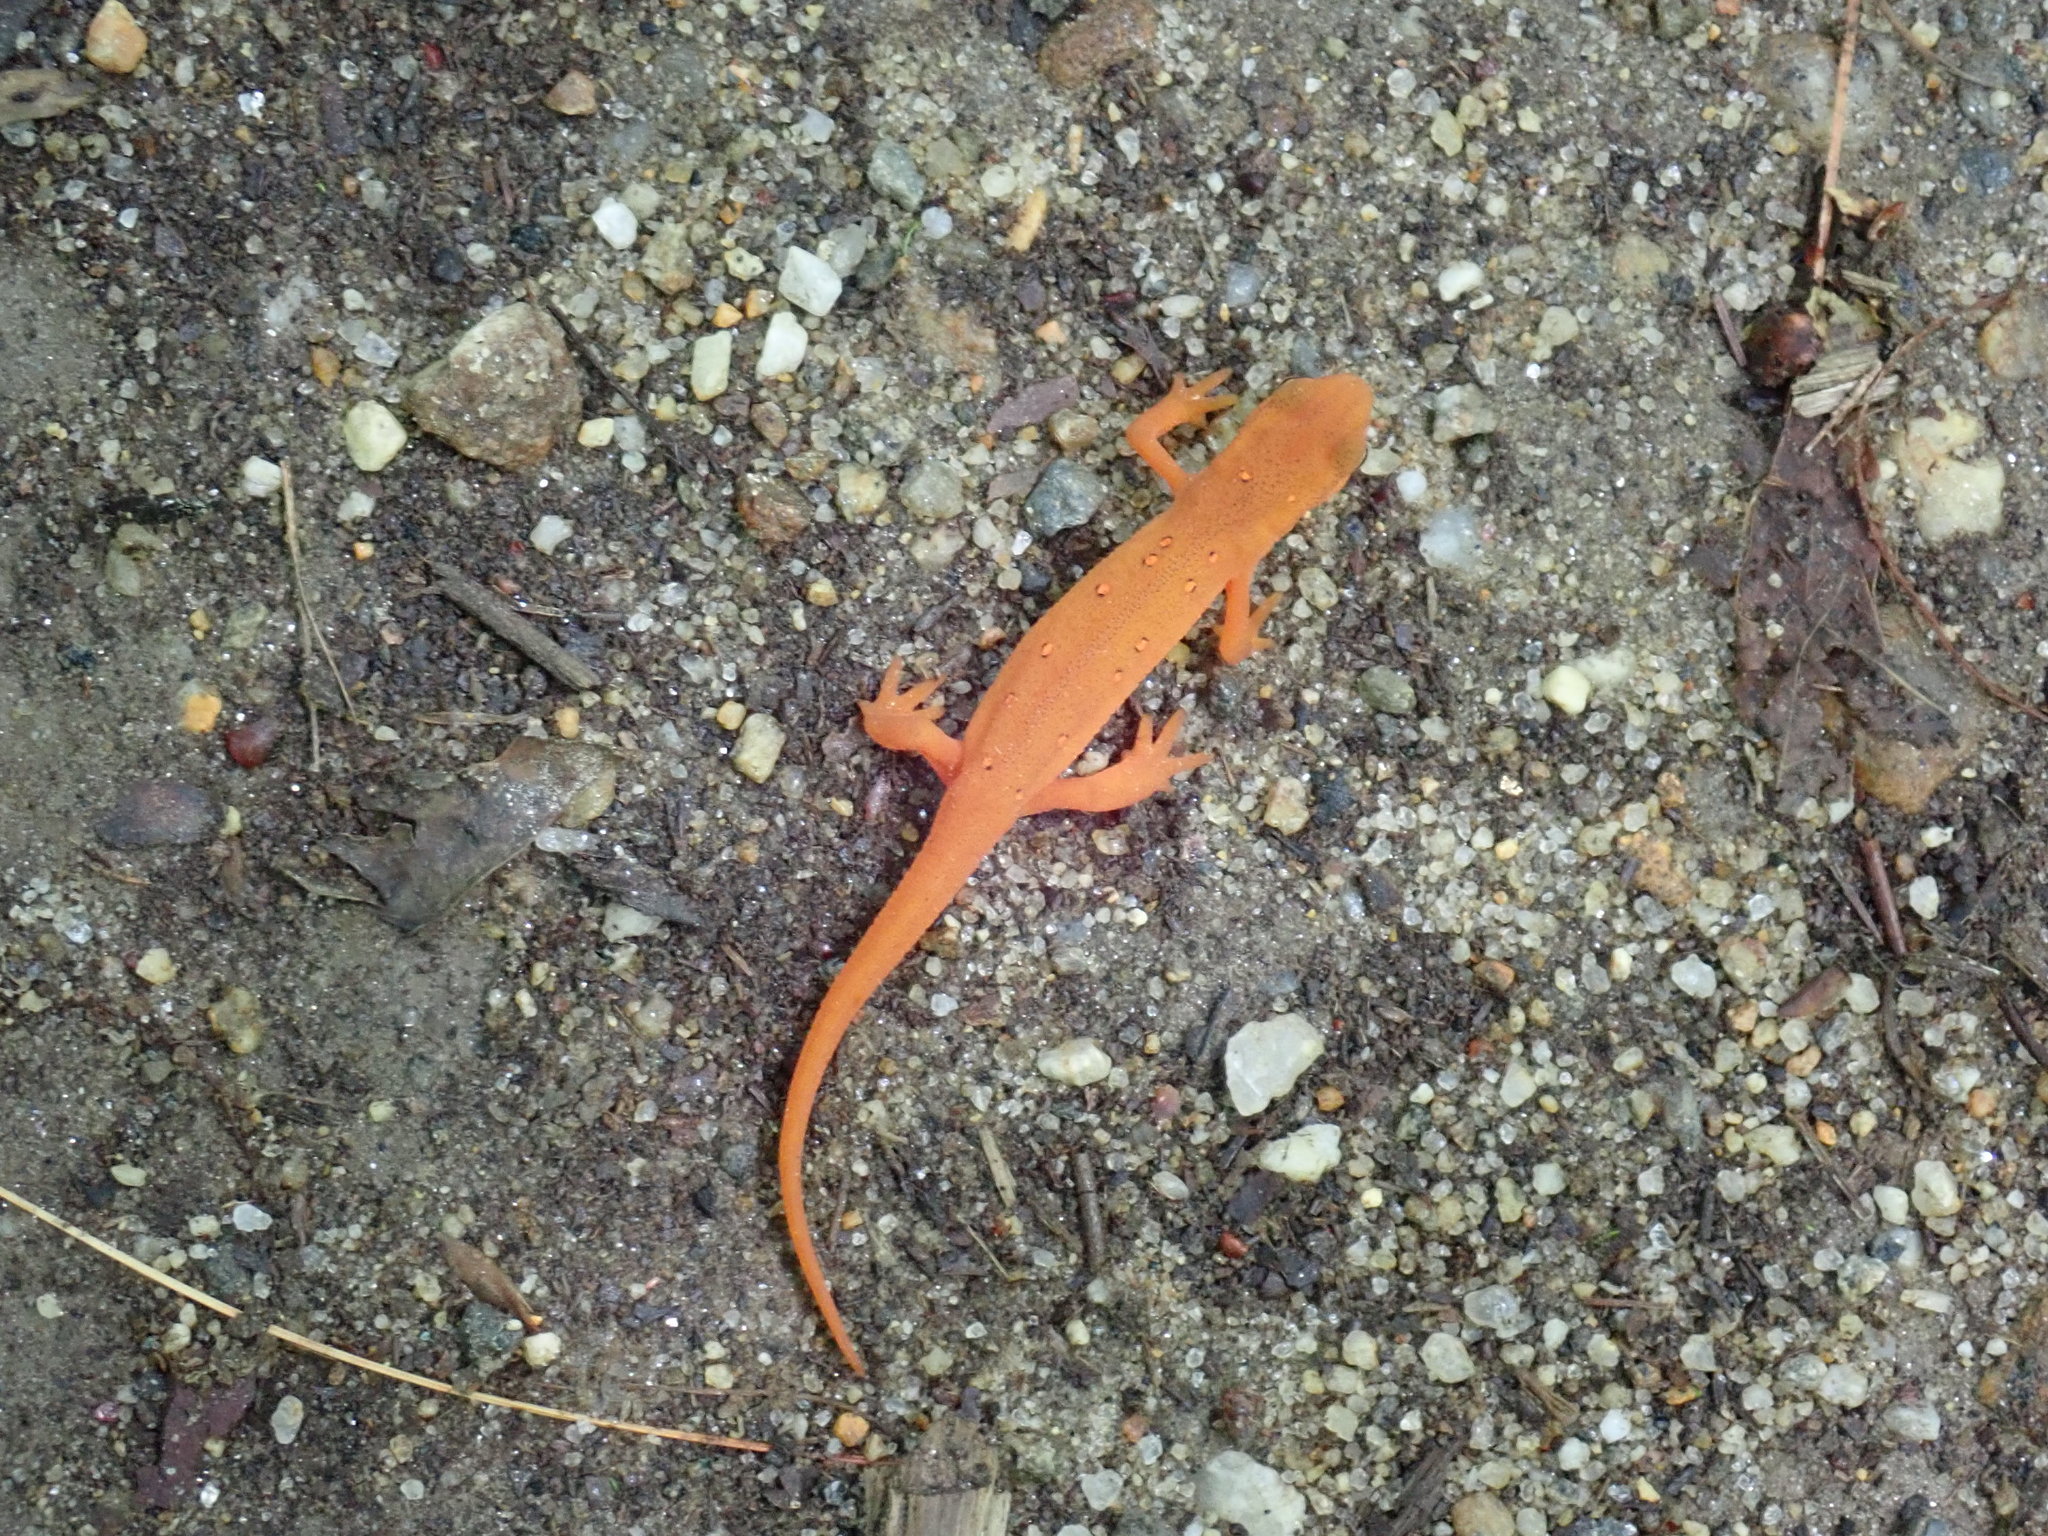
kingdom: Animalia
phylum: Chordata
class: Amphibia
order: Caudata
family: Salamandridae
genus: Notophthalmus
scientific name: Notophthalmus viridescens
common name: Eastern newt
